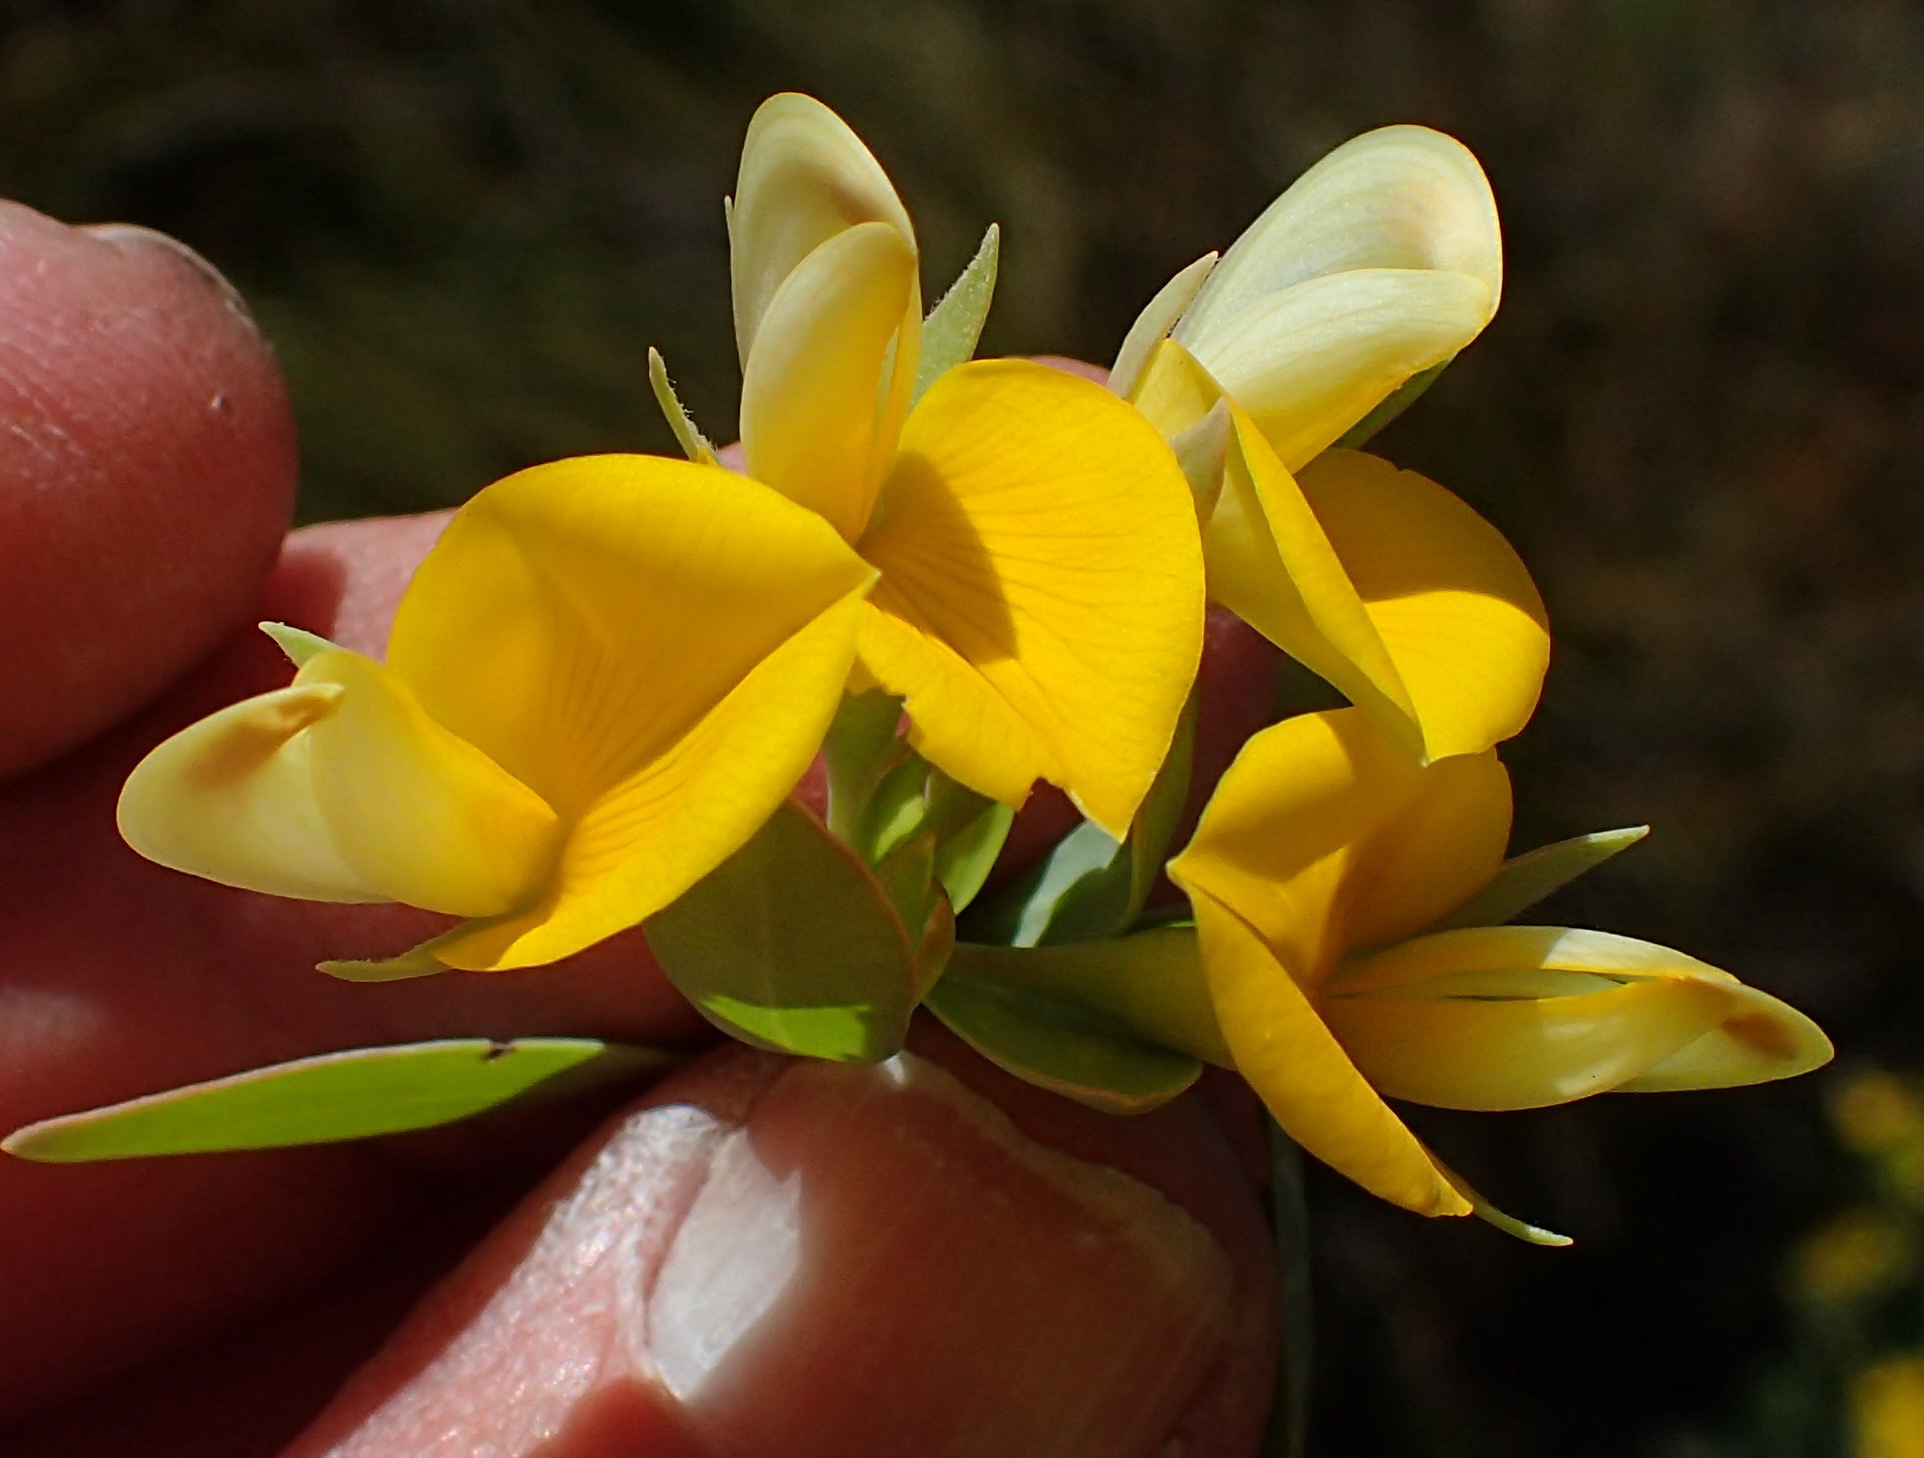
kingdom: Plantae
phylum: Tracheophyta
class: Magnoliopsida
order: Fabales
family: Fabaceae
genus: Rafnia
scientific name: Rafnia rostrata
